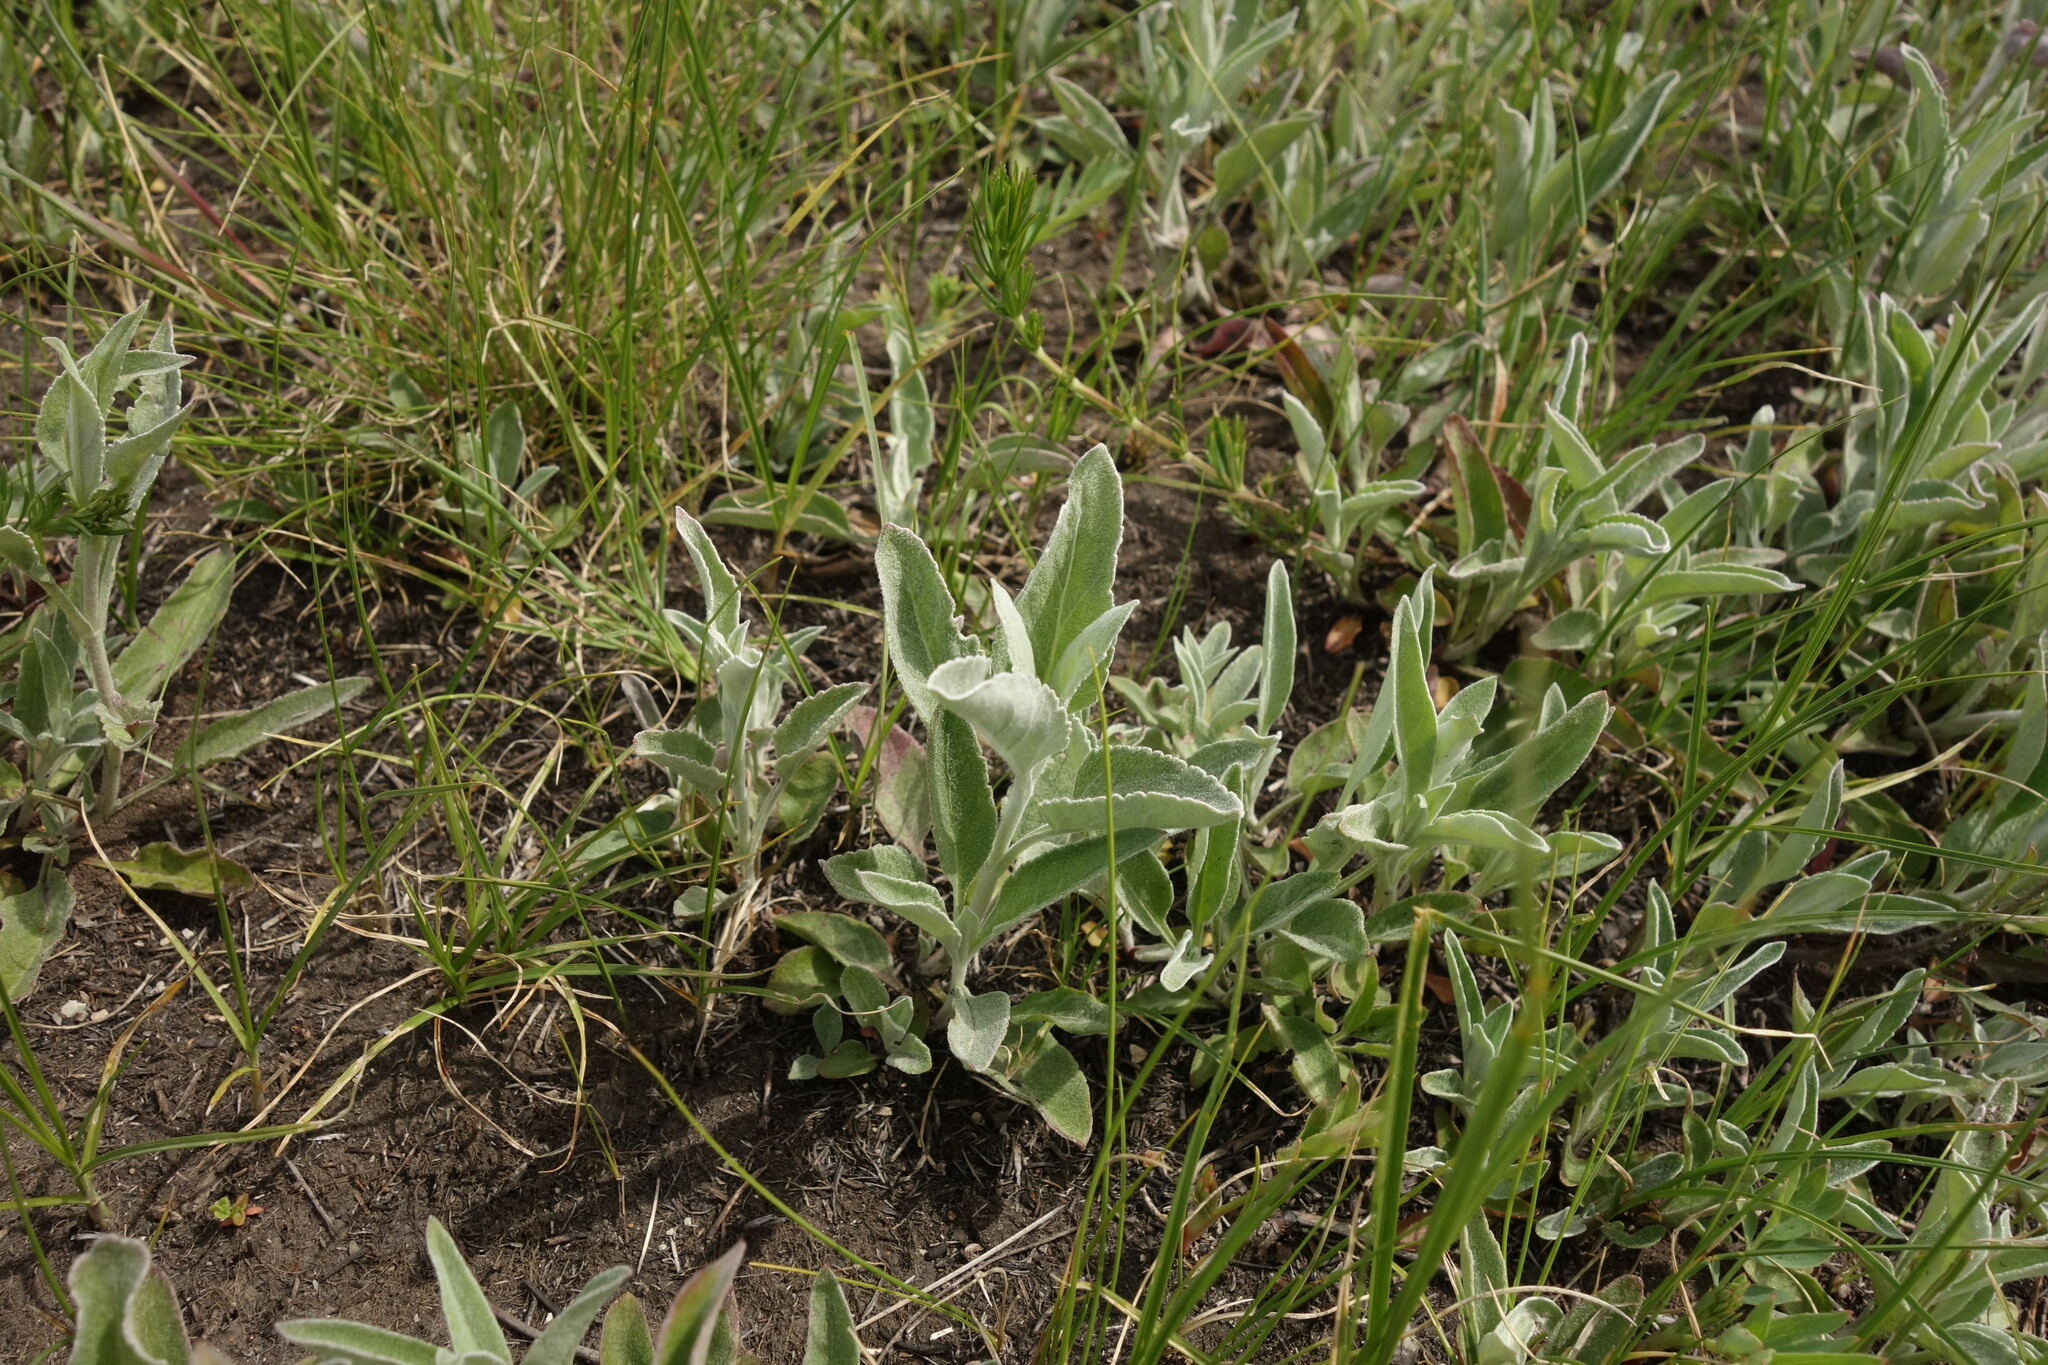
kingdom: Plantae
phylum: Tracheophyta
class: Magnoliopsida
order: Lamiales
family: Plantaginaceae
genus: Veronica
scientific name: Veronica incana
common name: Silver speedwell
